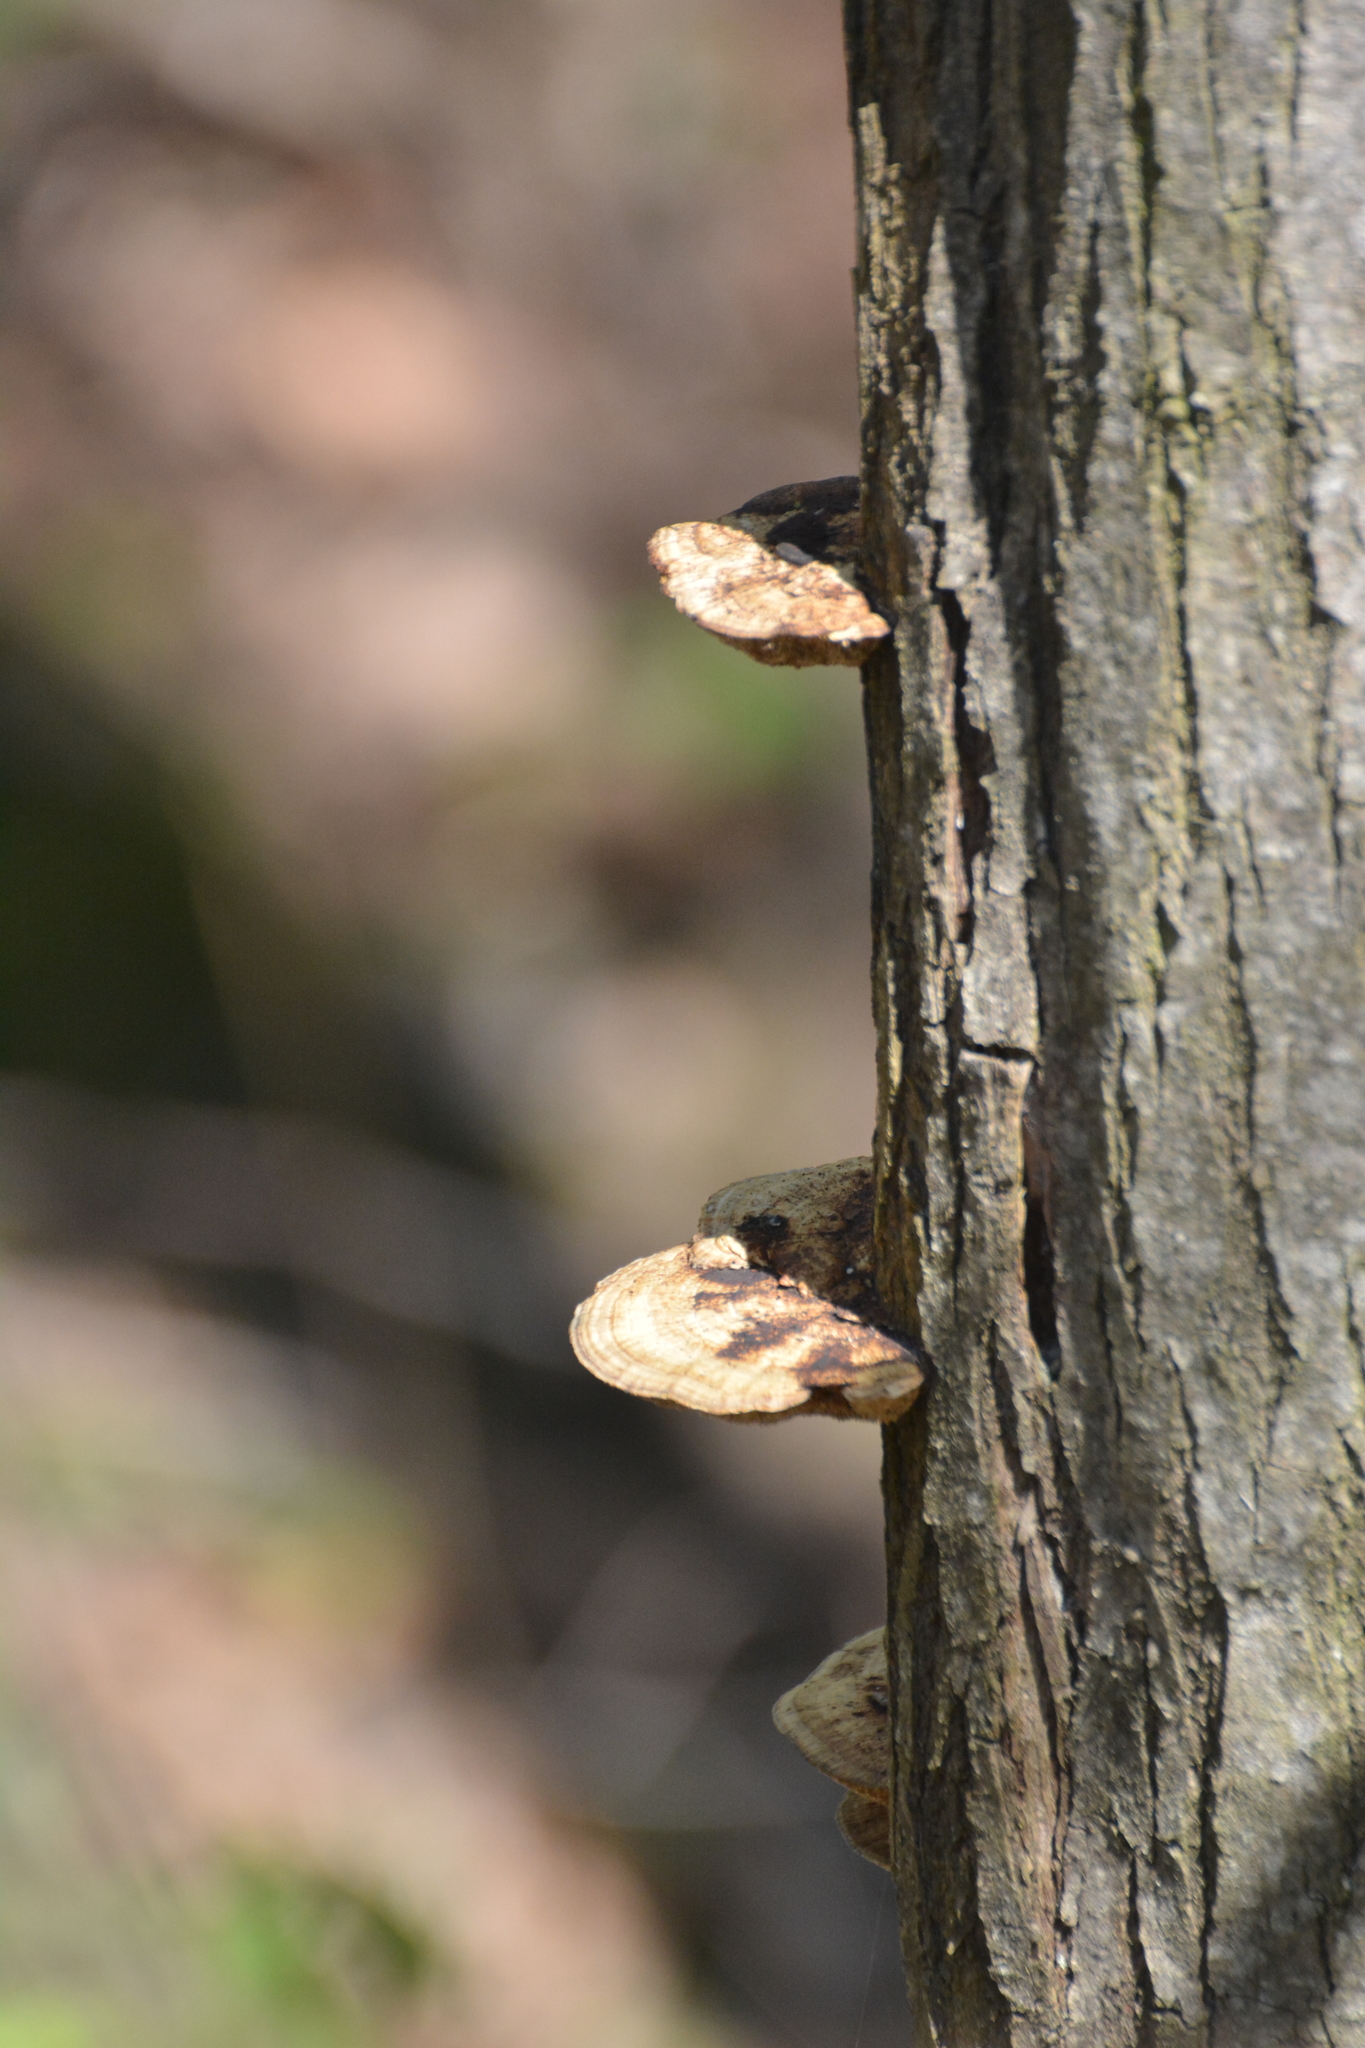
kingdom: Fungi
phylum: Basidiomycota
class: Agaricomycetes
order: Polyporales
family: Polyporaceae
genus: Daedaleopsis
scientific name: Daedaleopsis confragosa
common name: Blushing bracket
